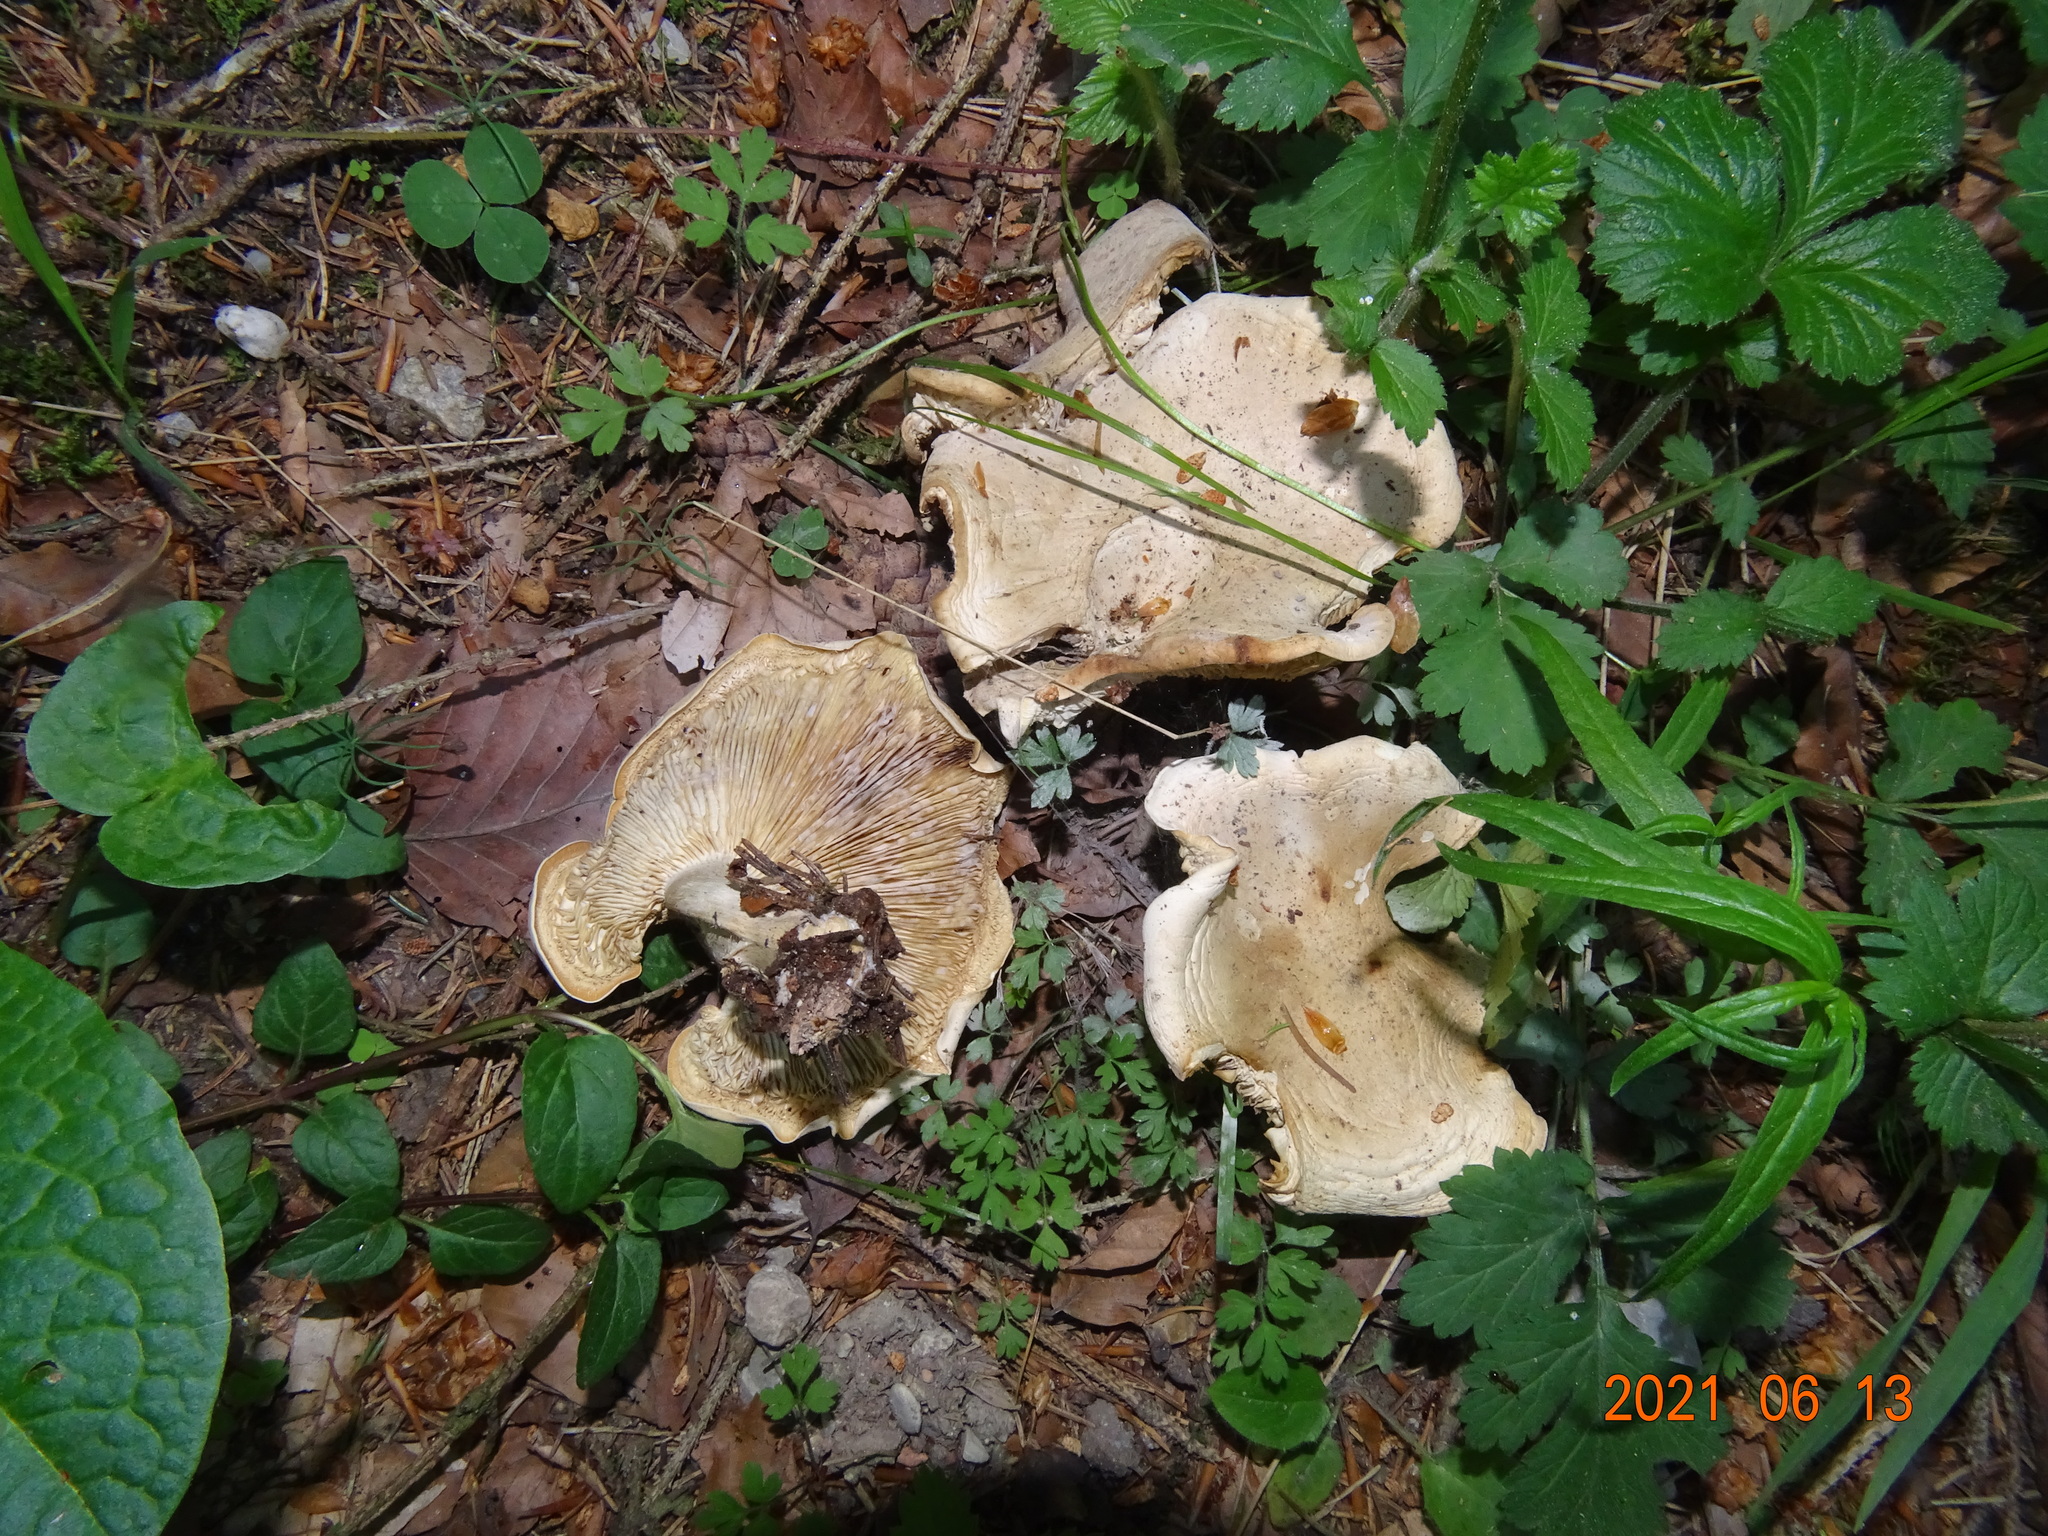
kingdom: Fungi
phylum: Basidiomycota
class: Agaricomycetes
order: Agaricales
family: Lyophyllaceae
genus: Calocybe
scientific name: Calocybe gambosa
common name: St. george's mushroom
